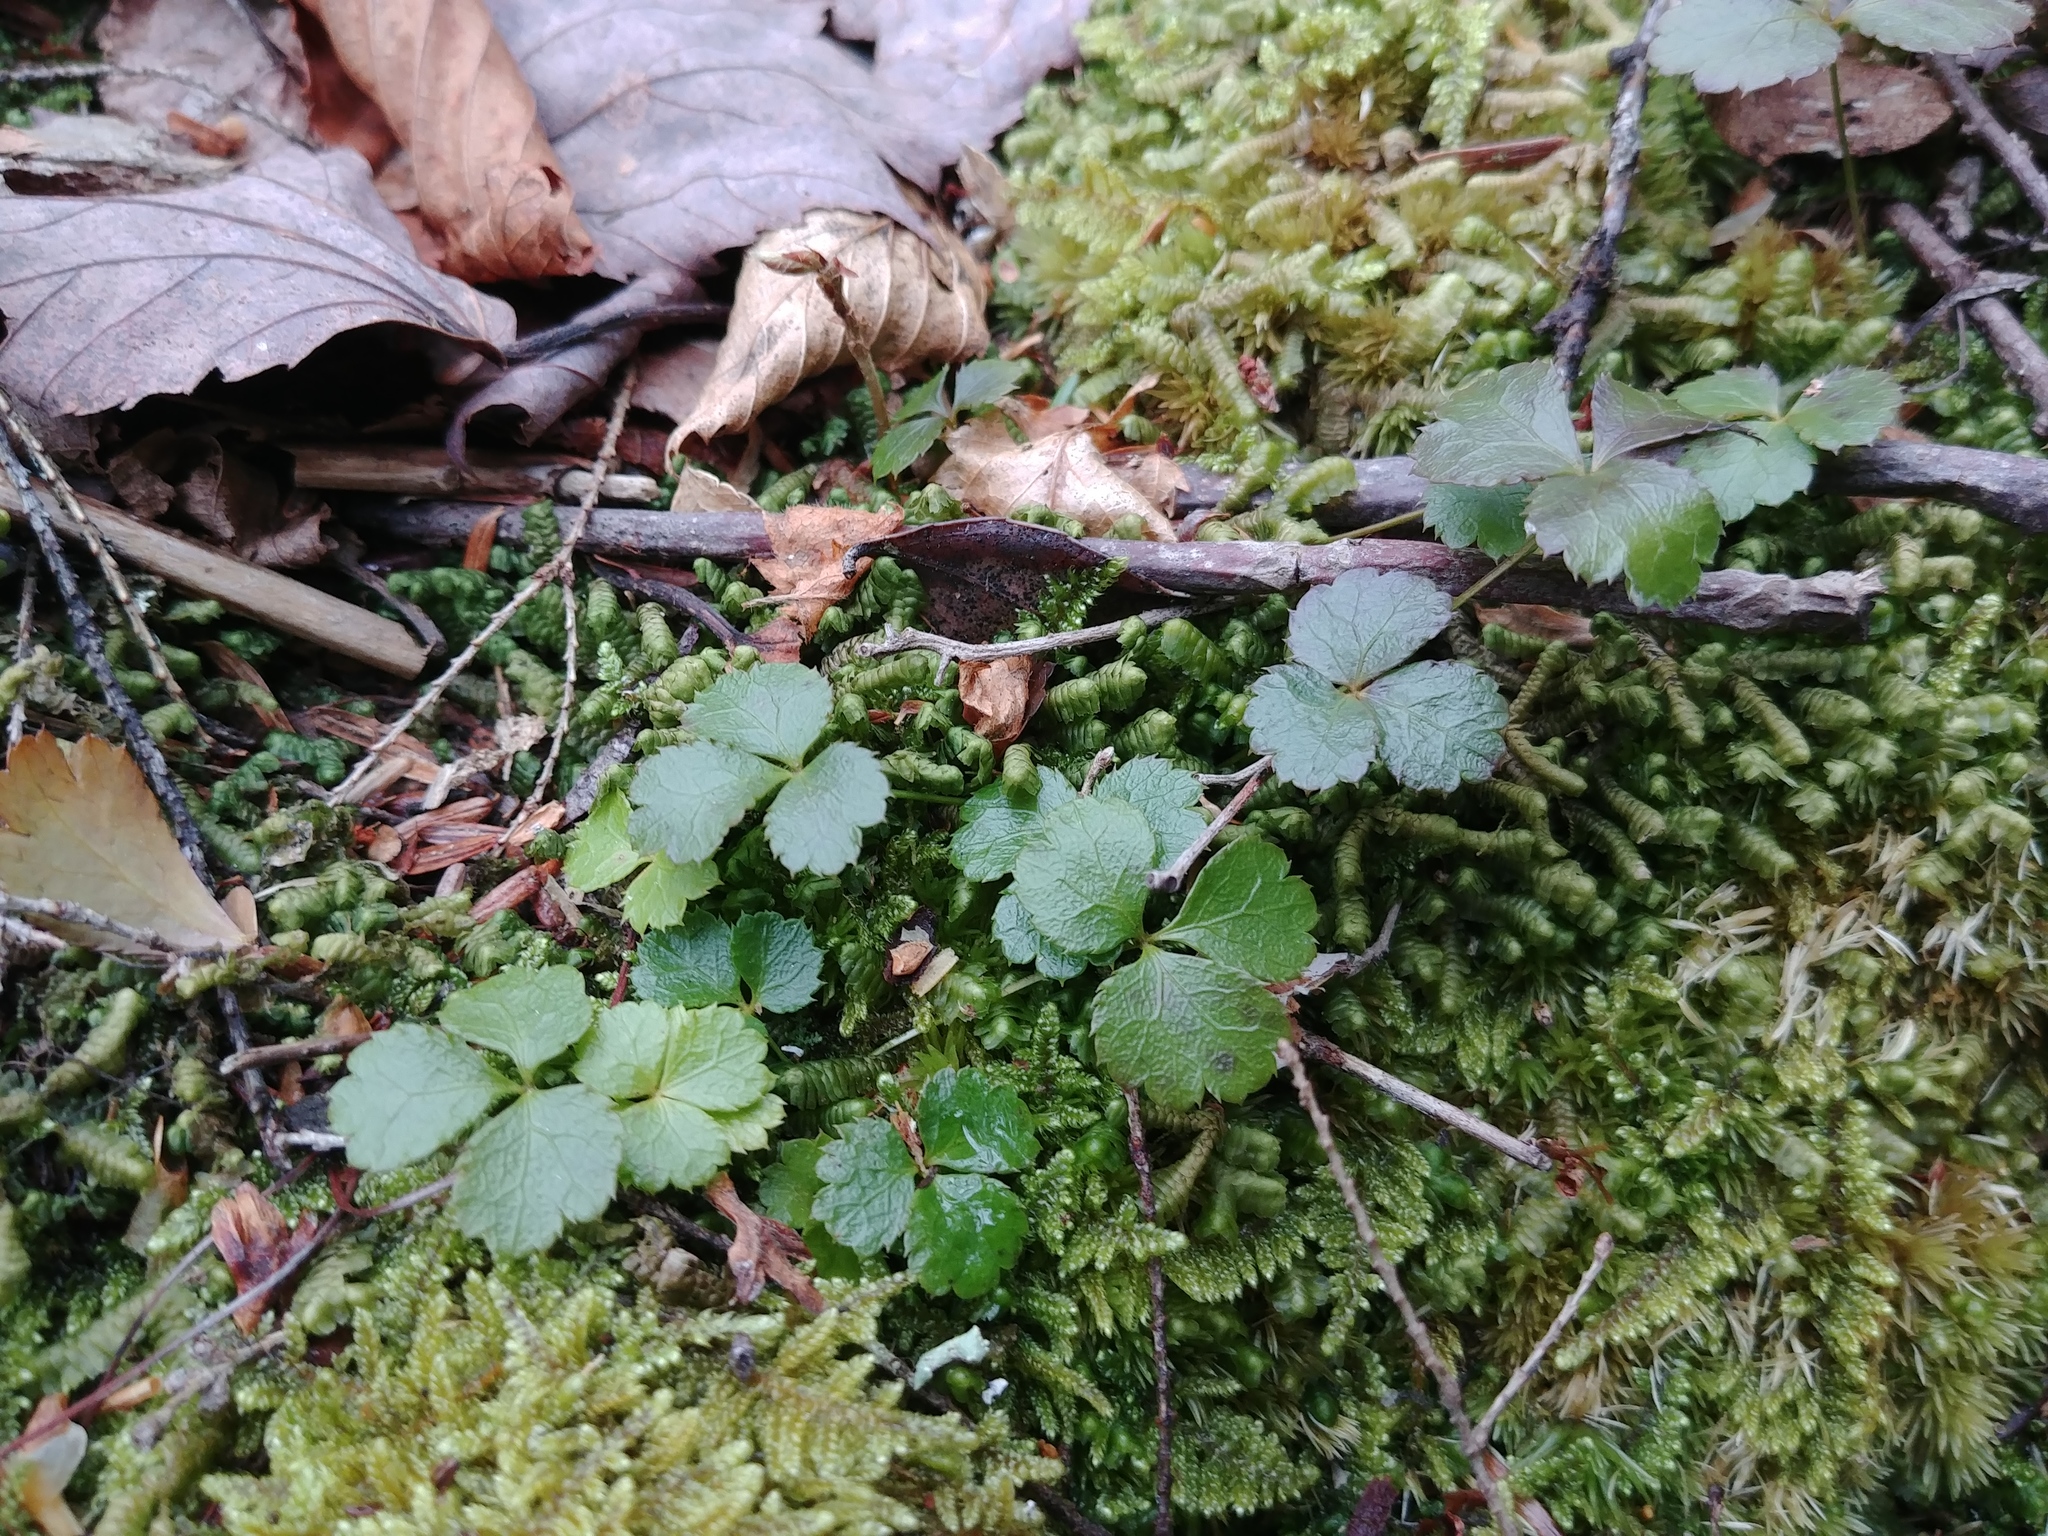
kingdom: Plantae
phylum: Tracheophyta
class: Magnoliopsida
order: Ranunculales
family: Ranunculaceae
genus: Coptis
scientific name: Coptis trifolia
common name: Canker-root
